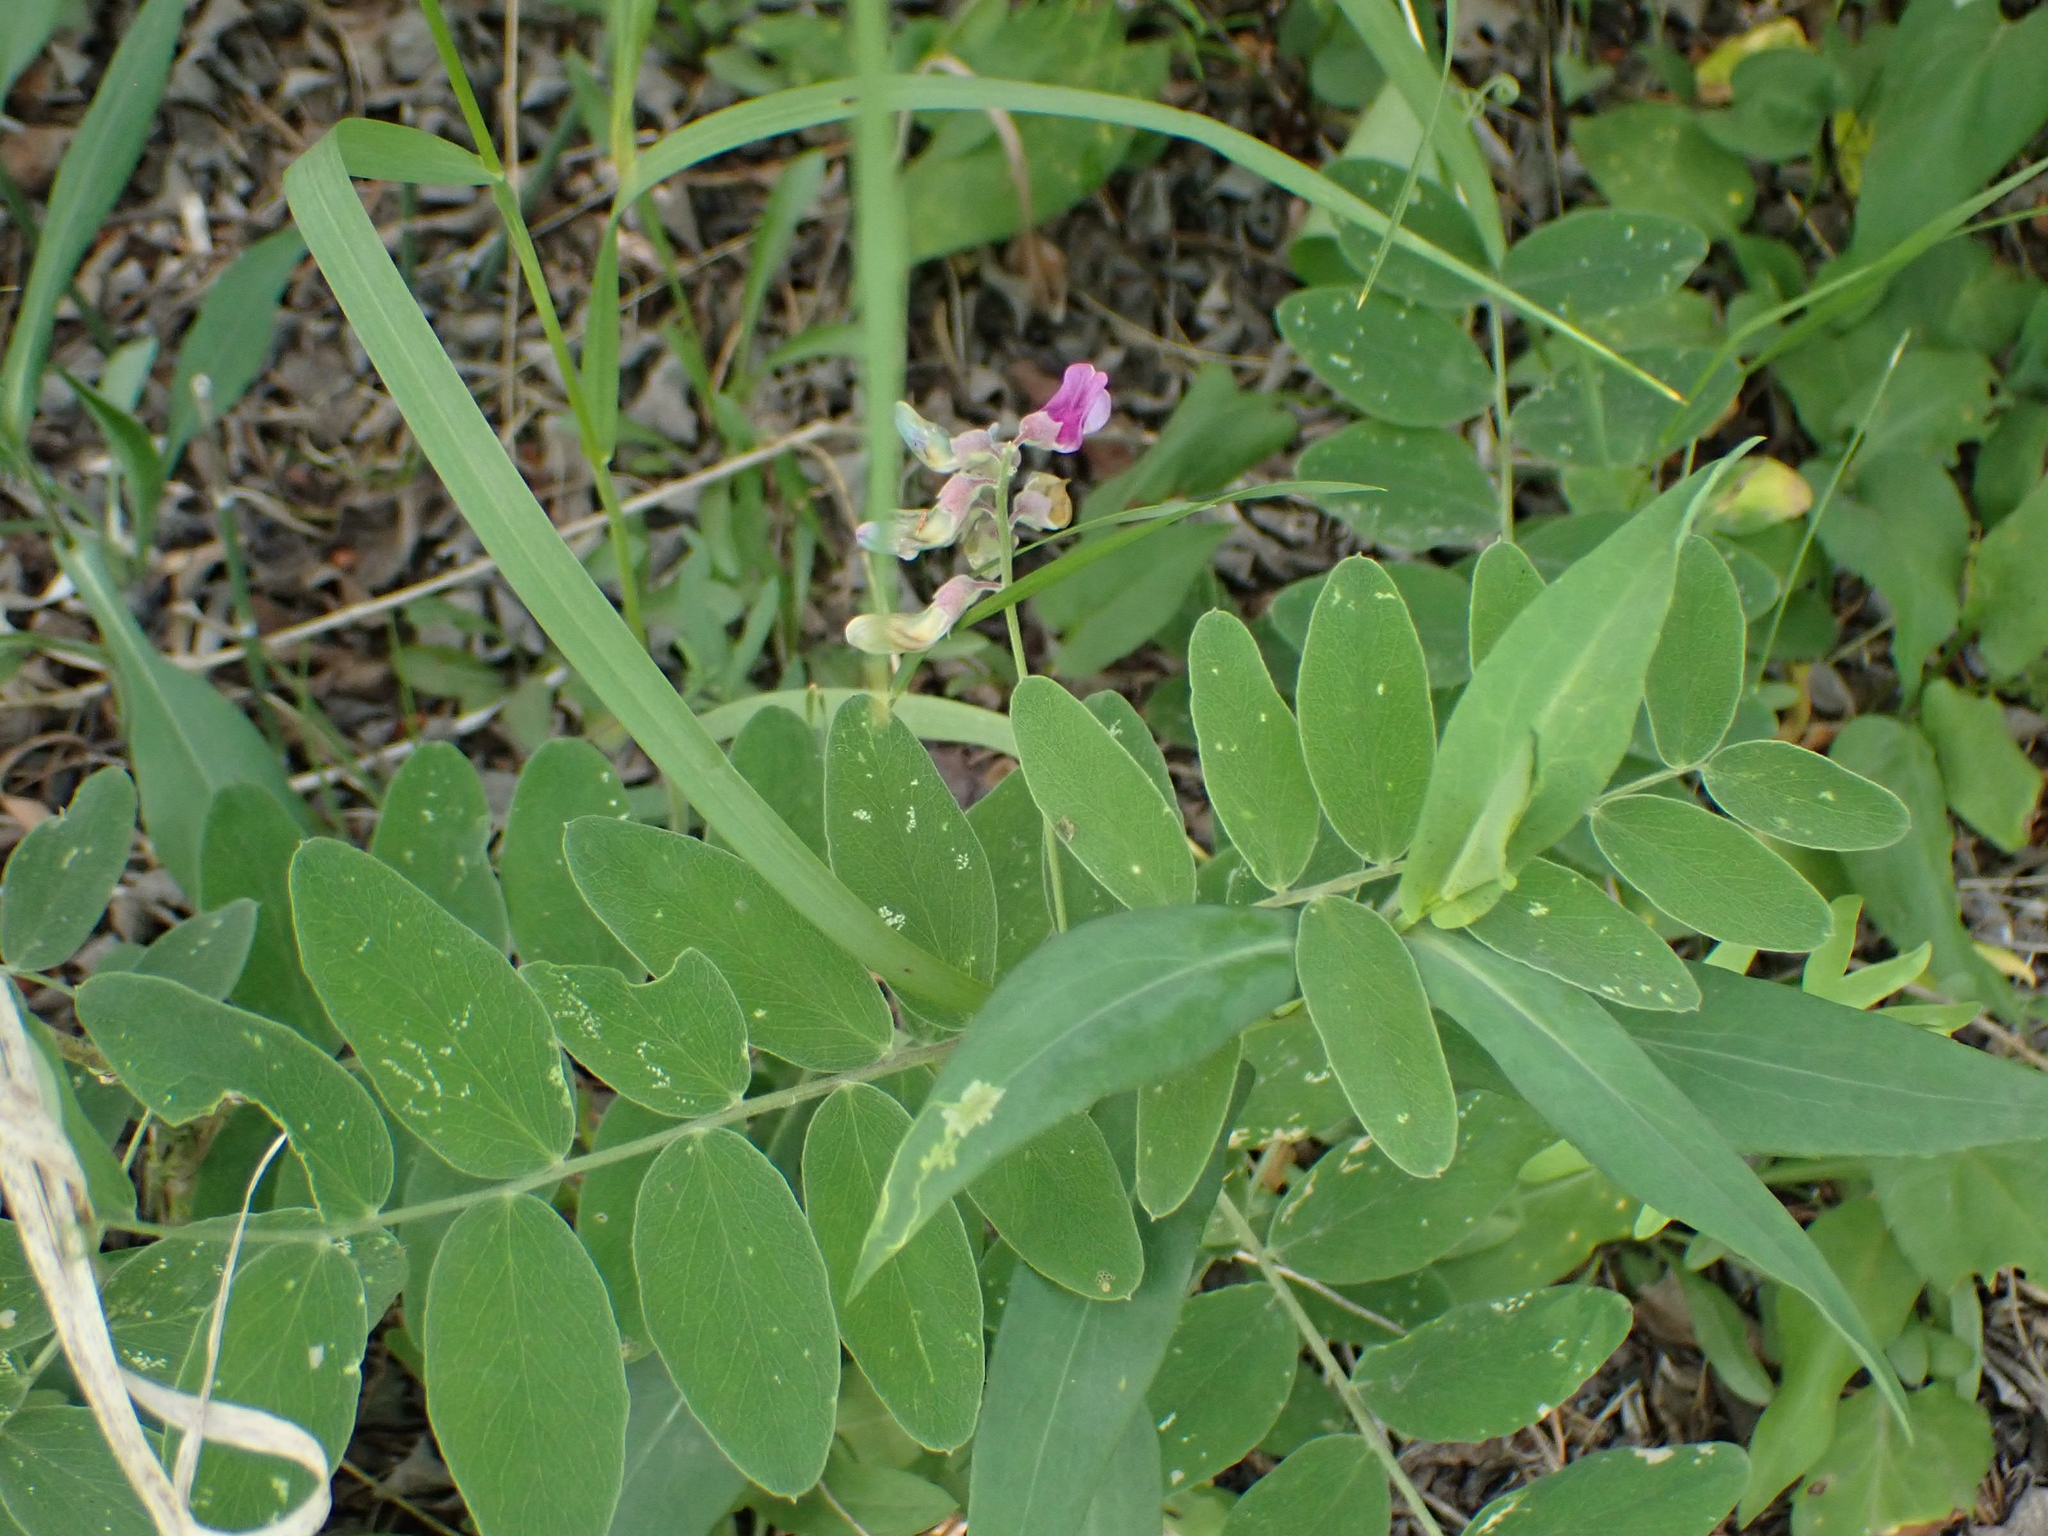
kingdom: Plantae
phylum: Tracheophyta
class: Magnoliopsida
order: Fabales
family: Fabaceae
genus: Lathyrus
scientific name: Lathyrus venosus
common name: Forest-pea
